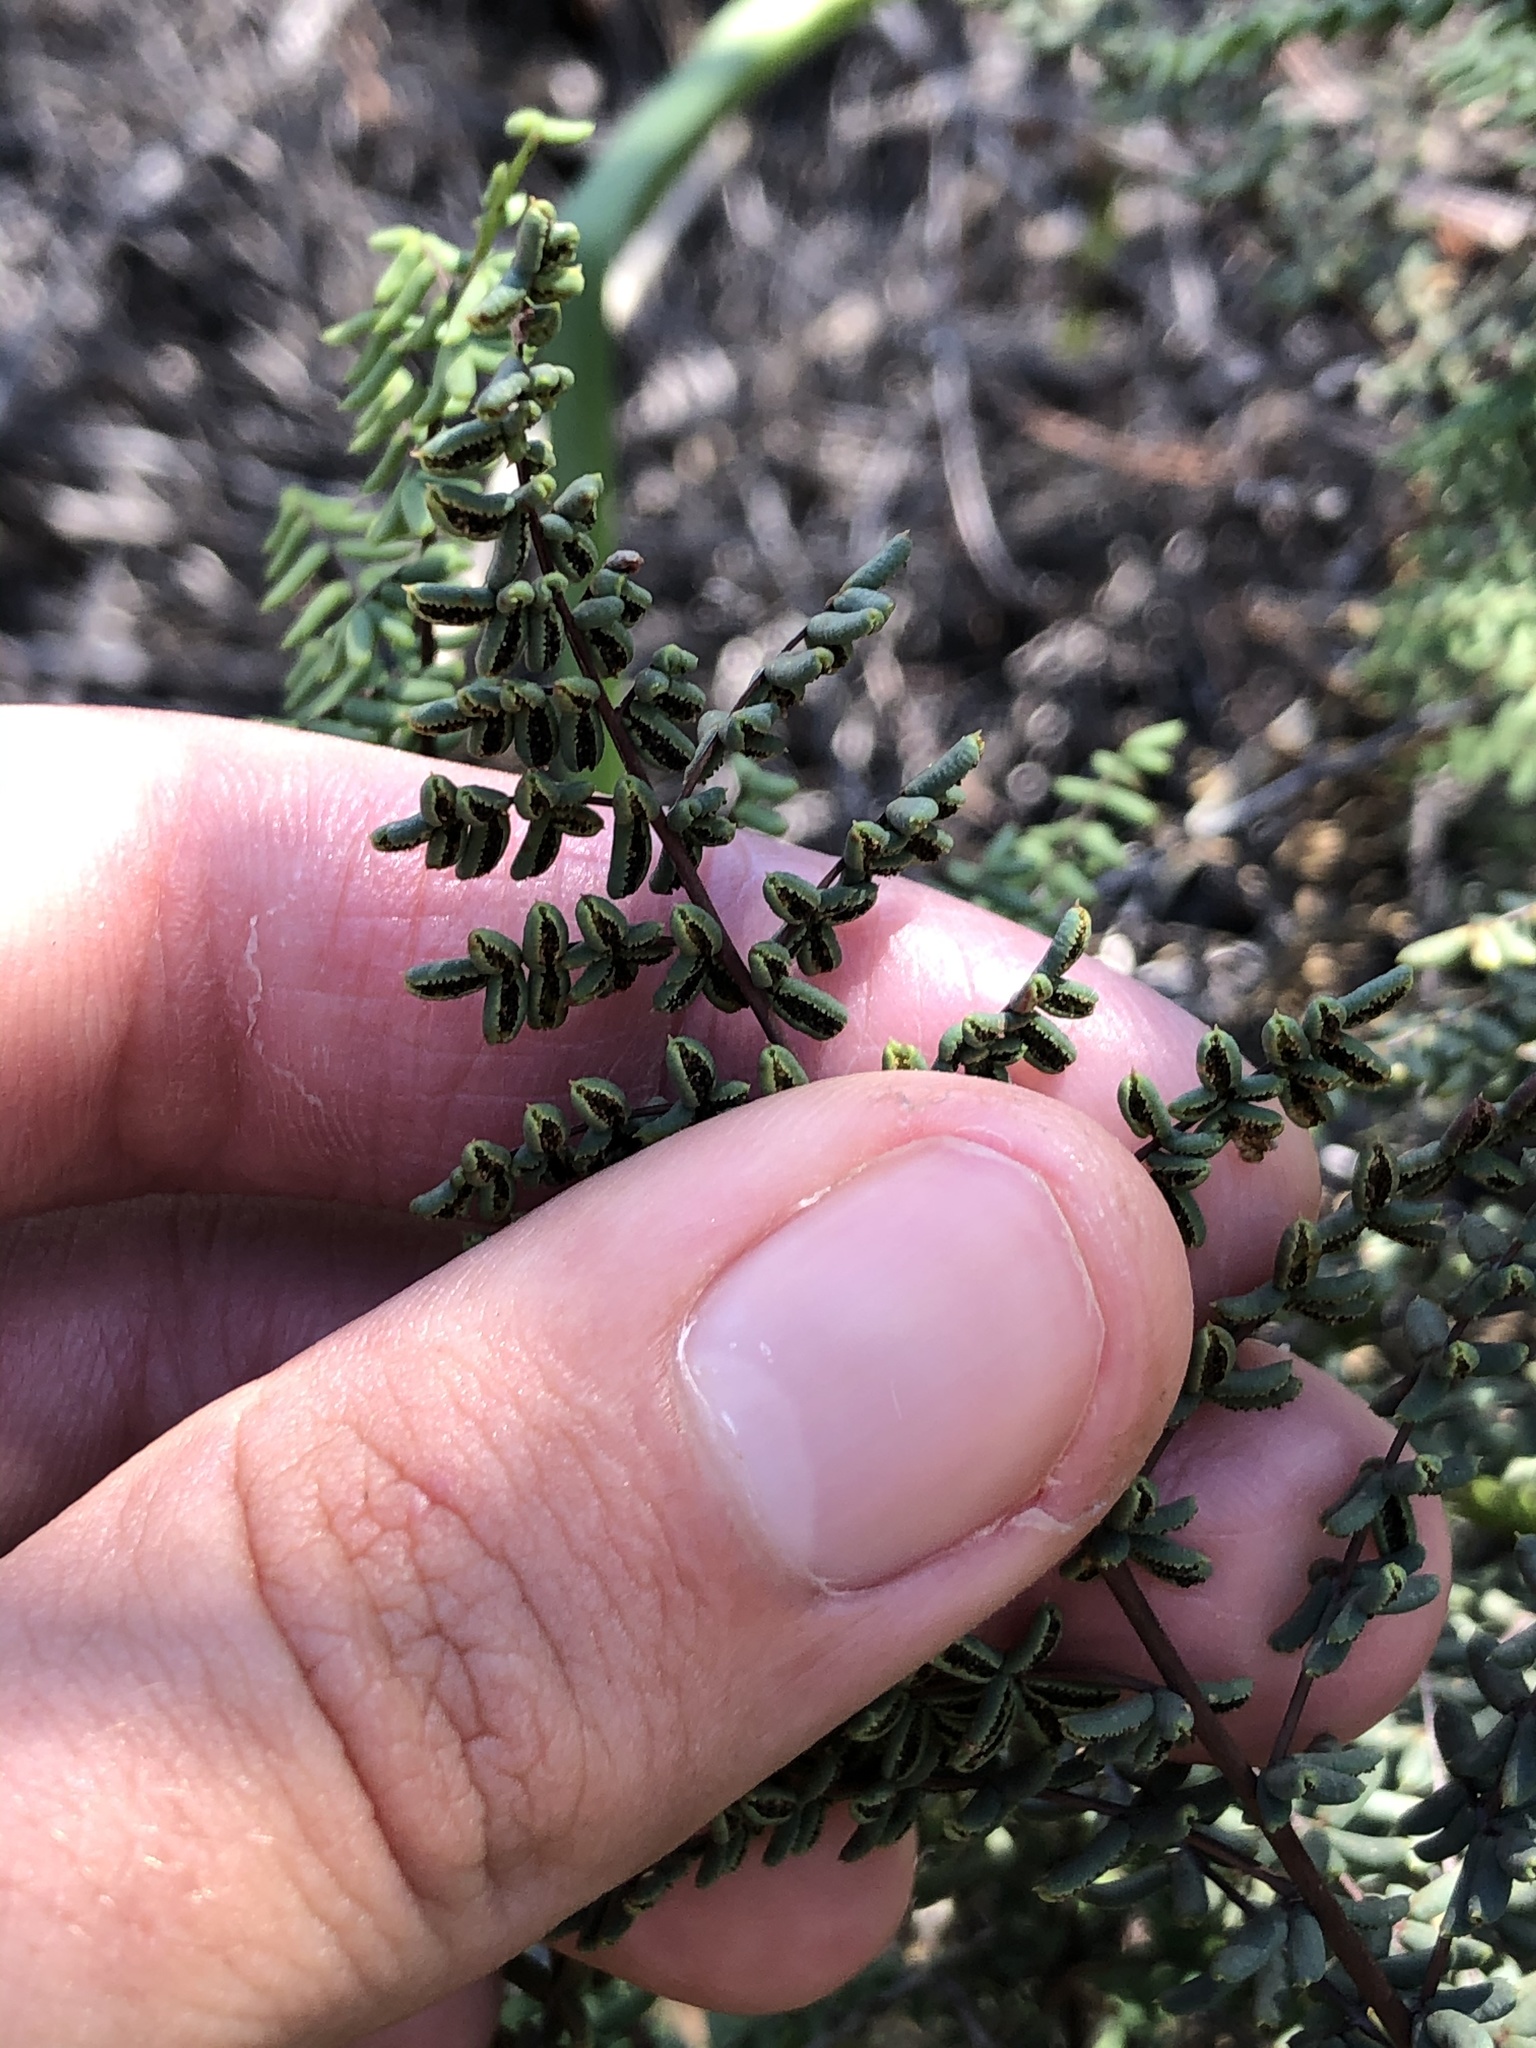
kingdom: Plantae
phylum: Tracheophyta
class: Polypodiopsida
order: Polypodiales
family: Pteridaceae
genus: Pellaea
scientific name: Pellaea mucronata
